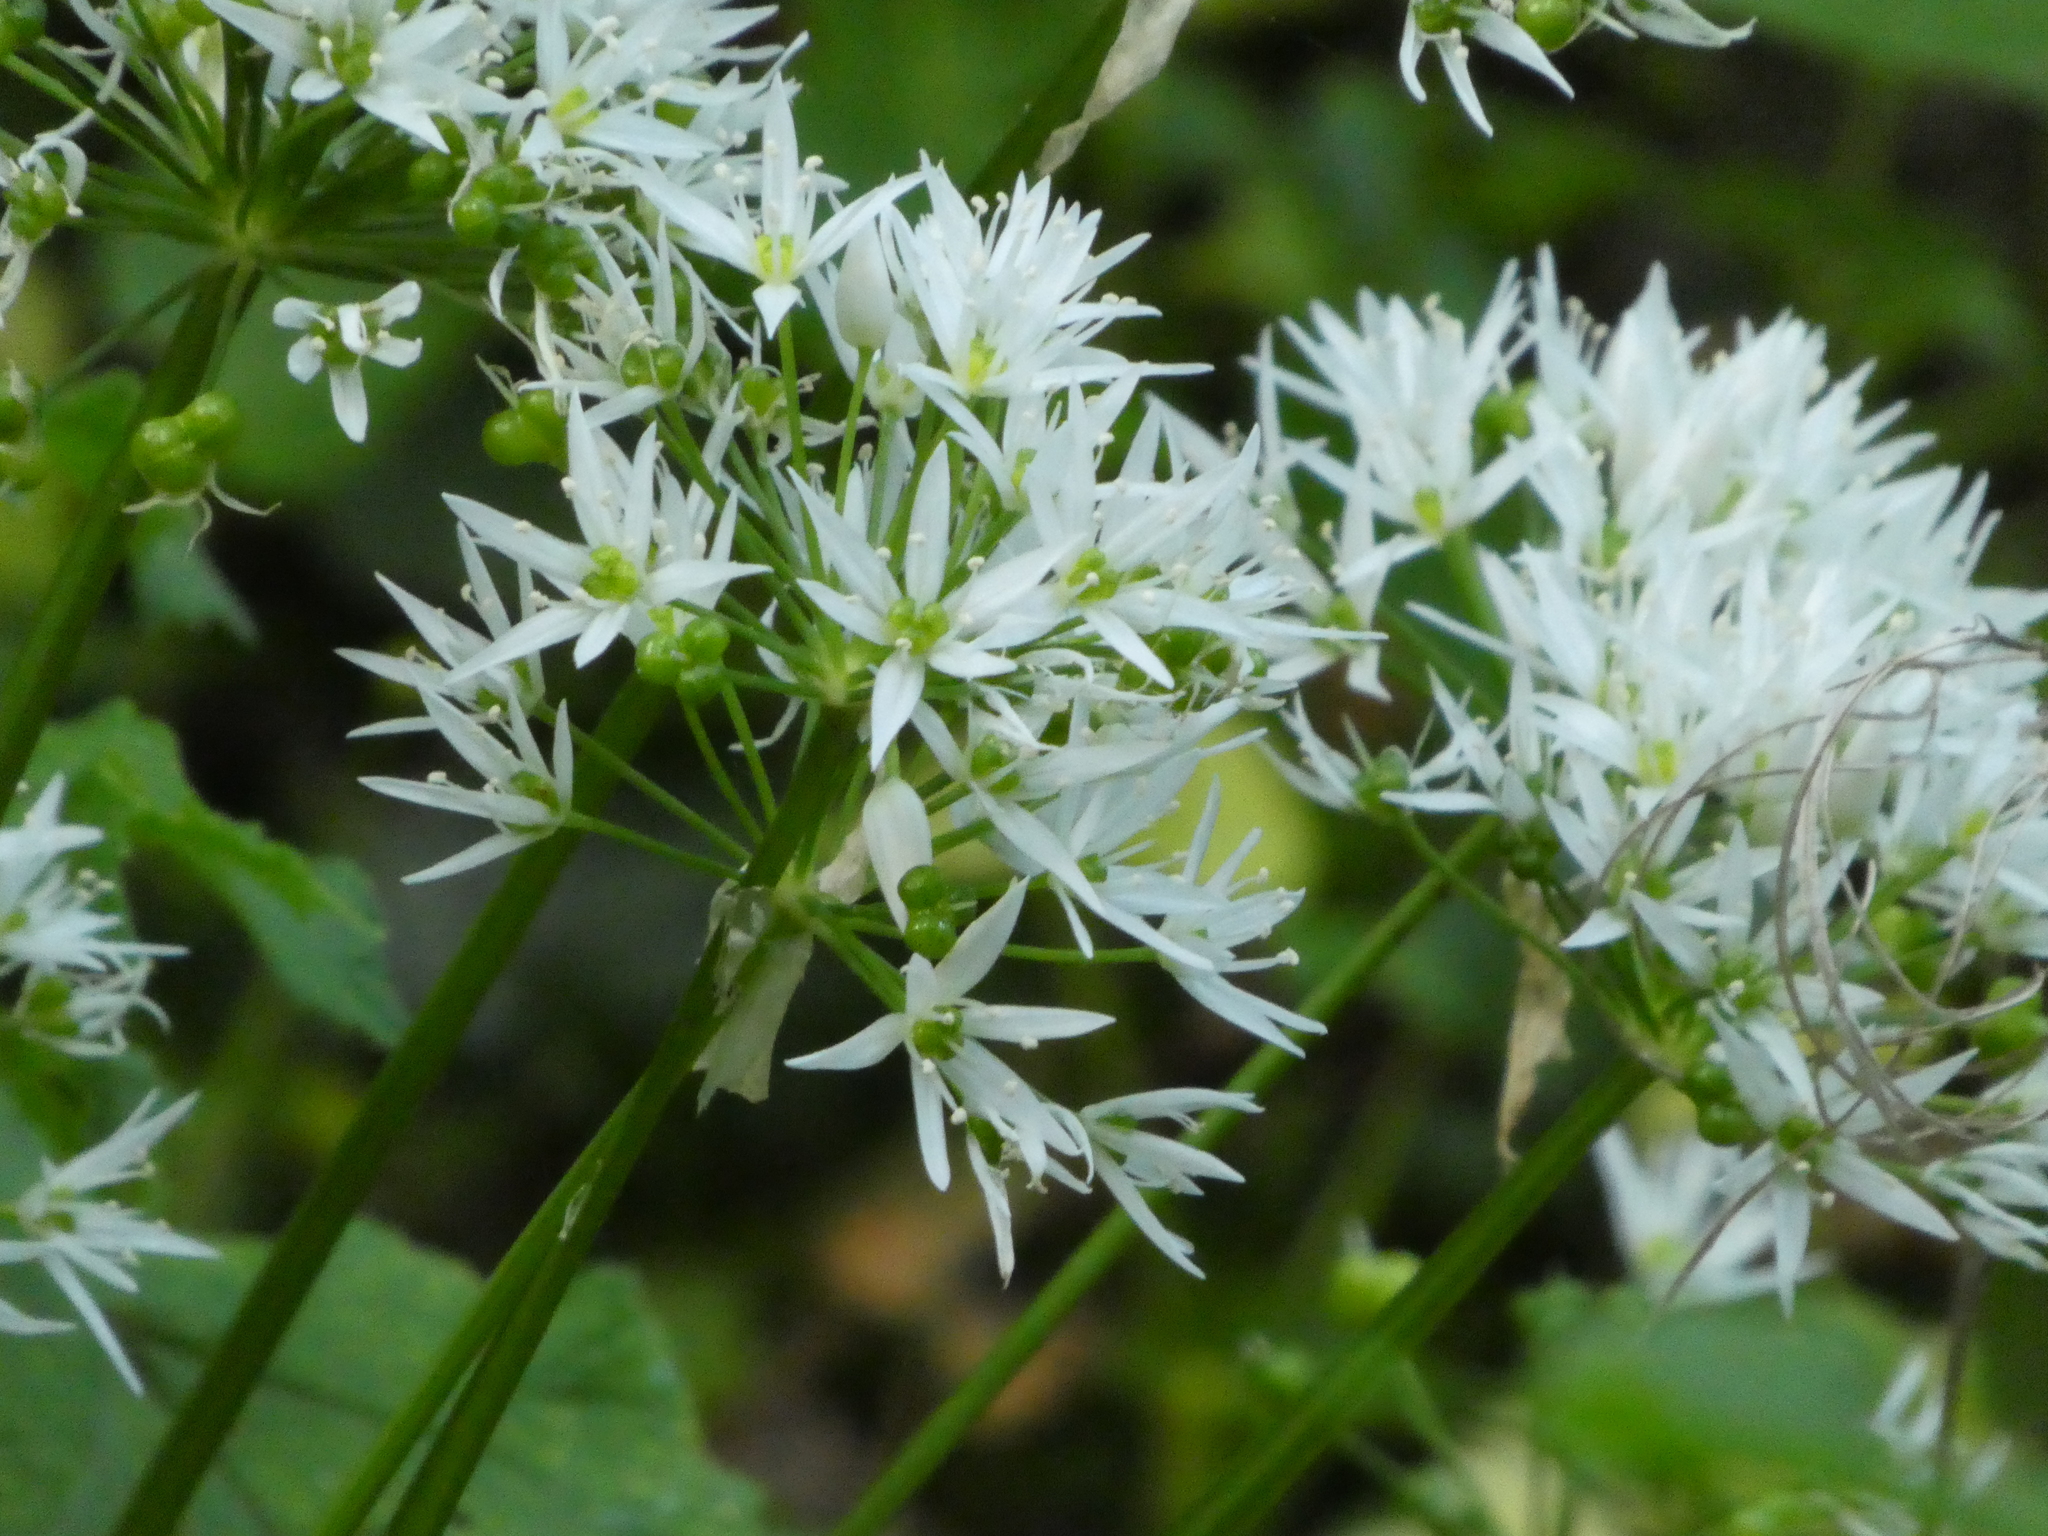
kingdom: Plantae
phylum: Tracheophyta
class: Liliopsida
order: Asparagales
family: Amaryllidaceae
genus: Allium
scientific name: Allium ursinum
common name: Ramsons
